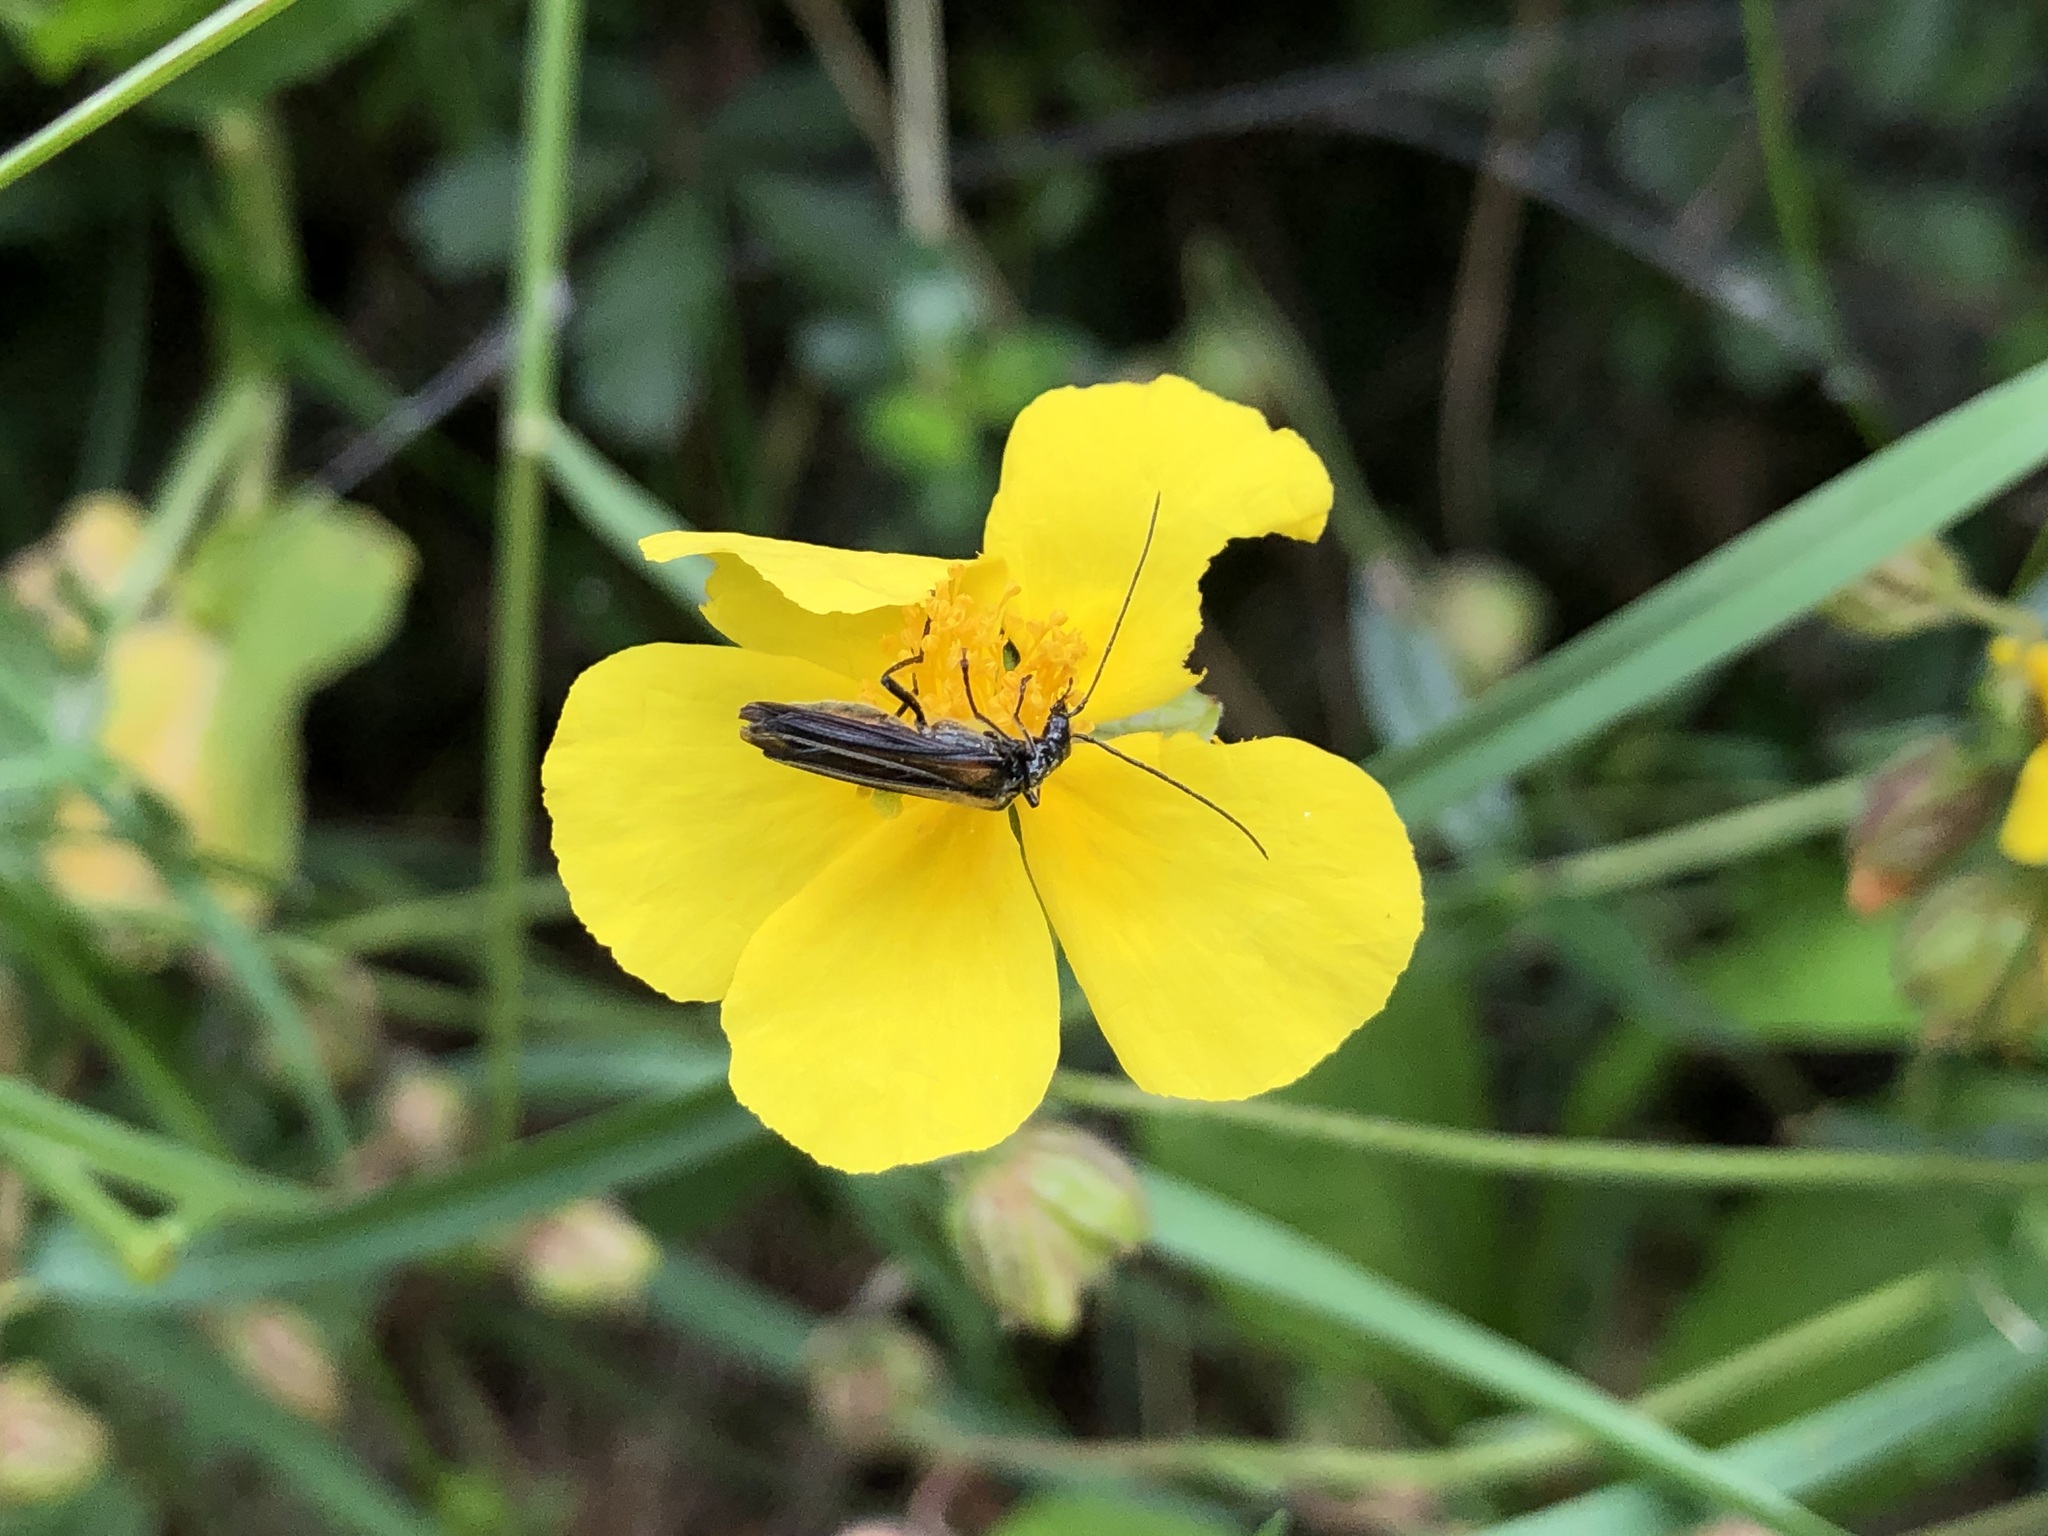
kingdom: Animalia
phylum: Arthropoda
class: Insecta
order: Coleoptera
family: Oedemeridae
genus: Oedemera
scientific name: Oedemera pthysica
